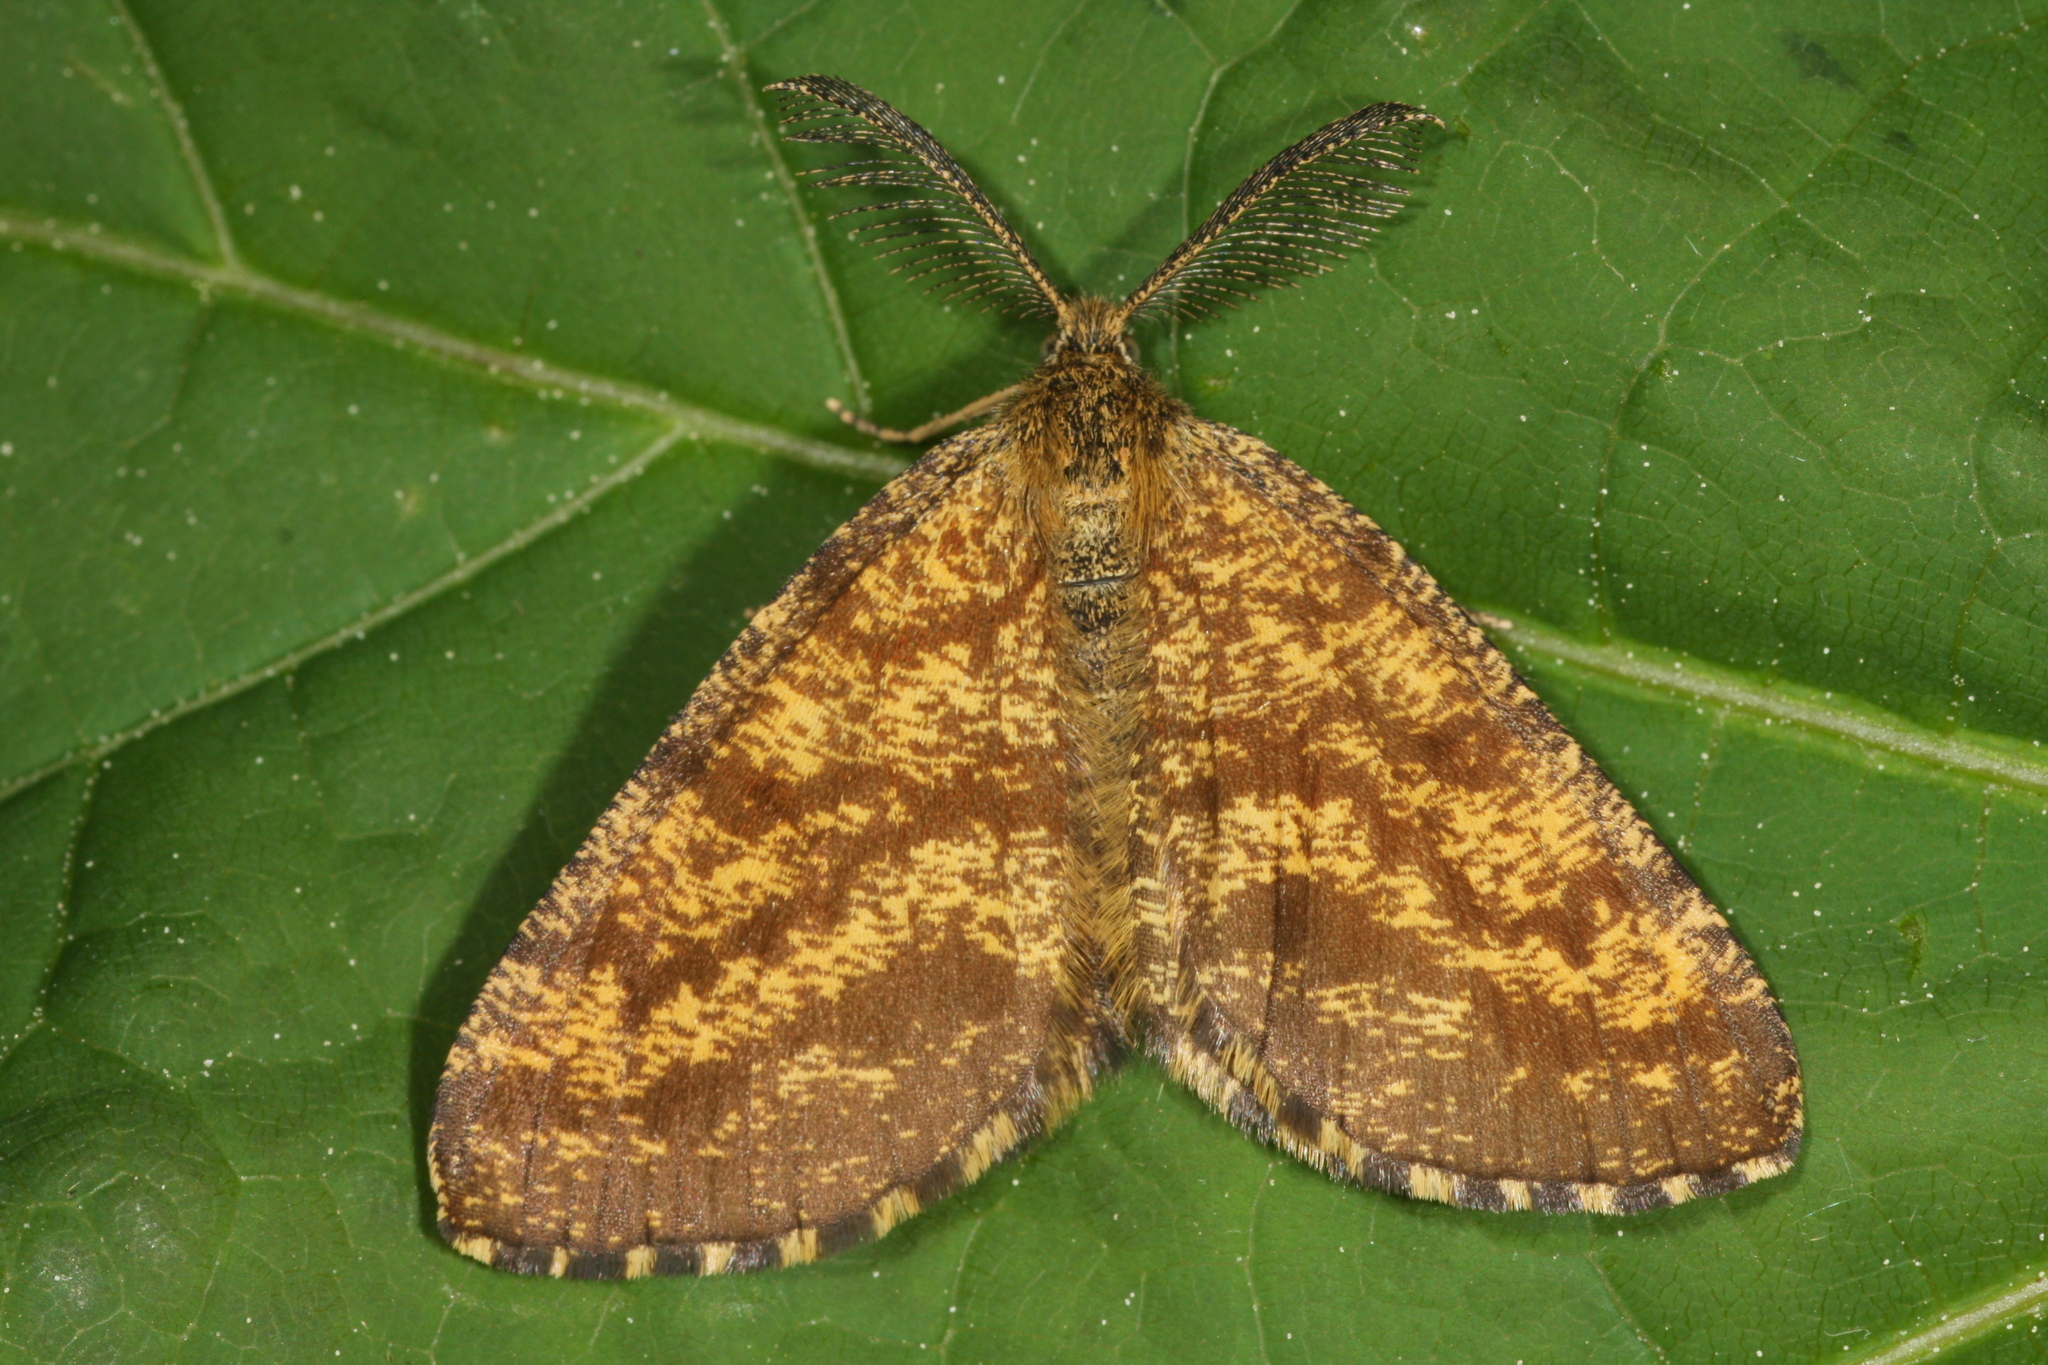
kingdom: Animalia
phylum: Arthropoda
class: Insecta
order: Lepidoptera
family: Geometridae
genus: Ematurga
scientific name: Ematurga atomaria
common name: Common heath
